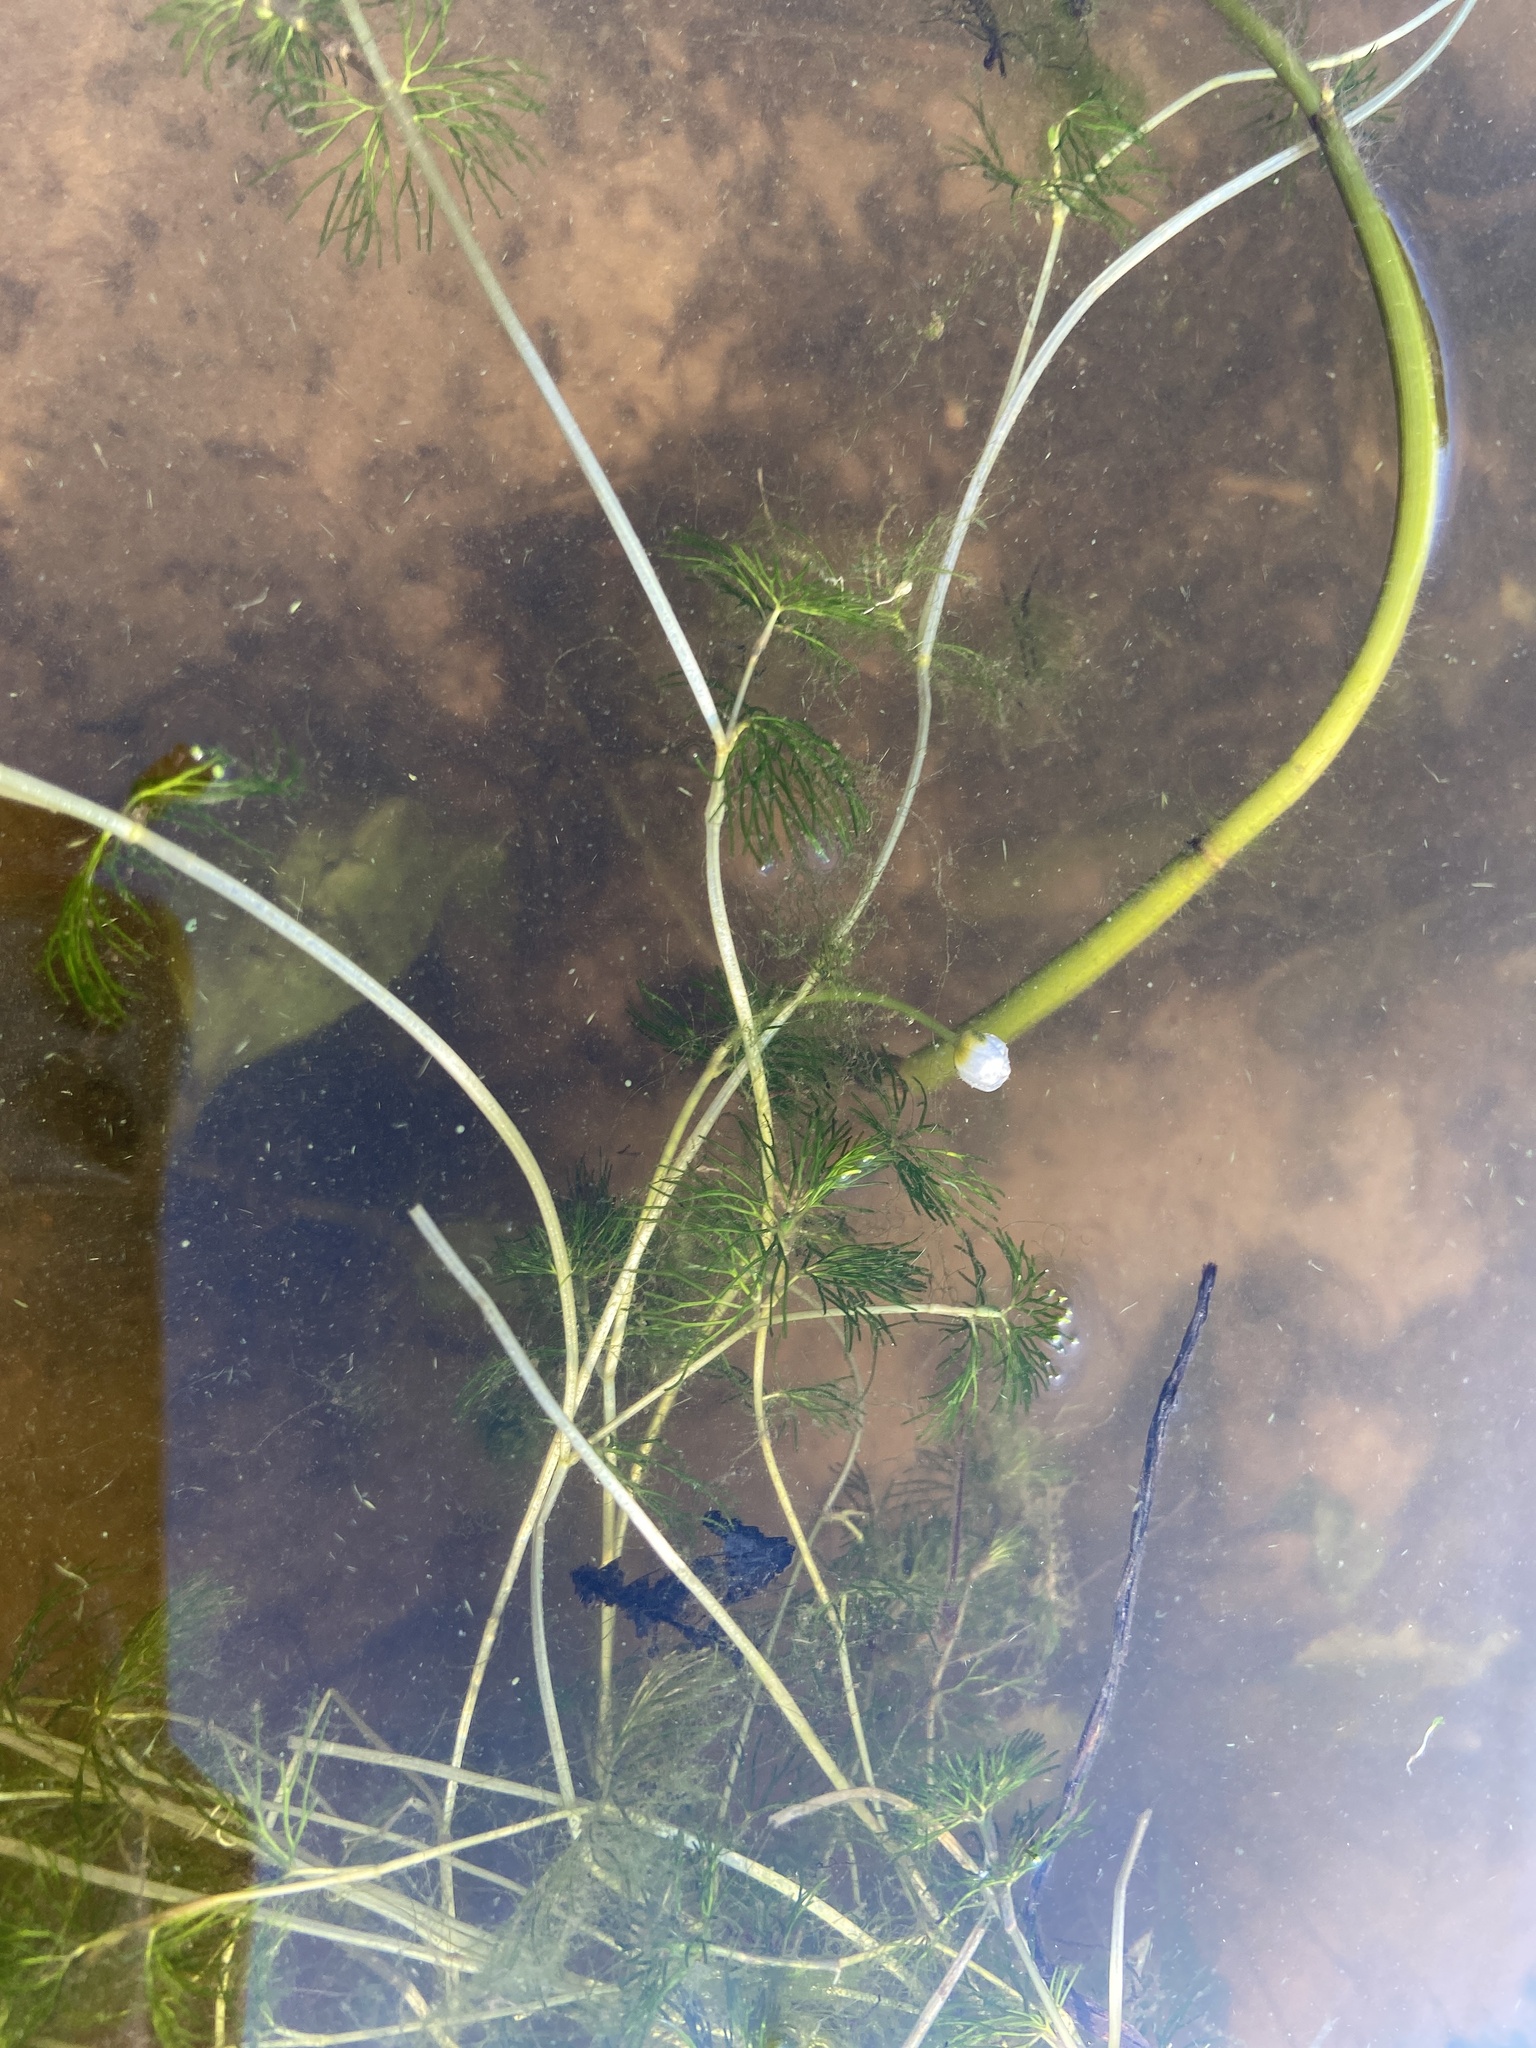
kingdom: Plantae
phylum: Tracheophyta
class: Magnoliopsida
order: Ranunculales
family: Ranunculaceae
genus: Ranunculus
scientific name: Ranunculus circinatus
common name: Fan-leaved water-crowfoot
